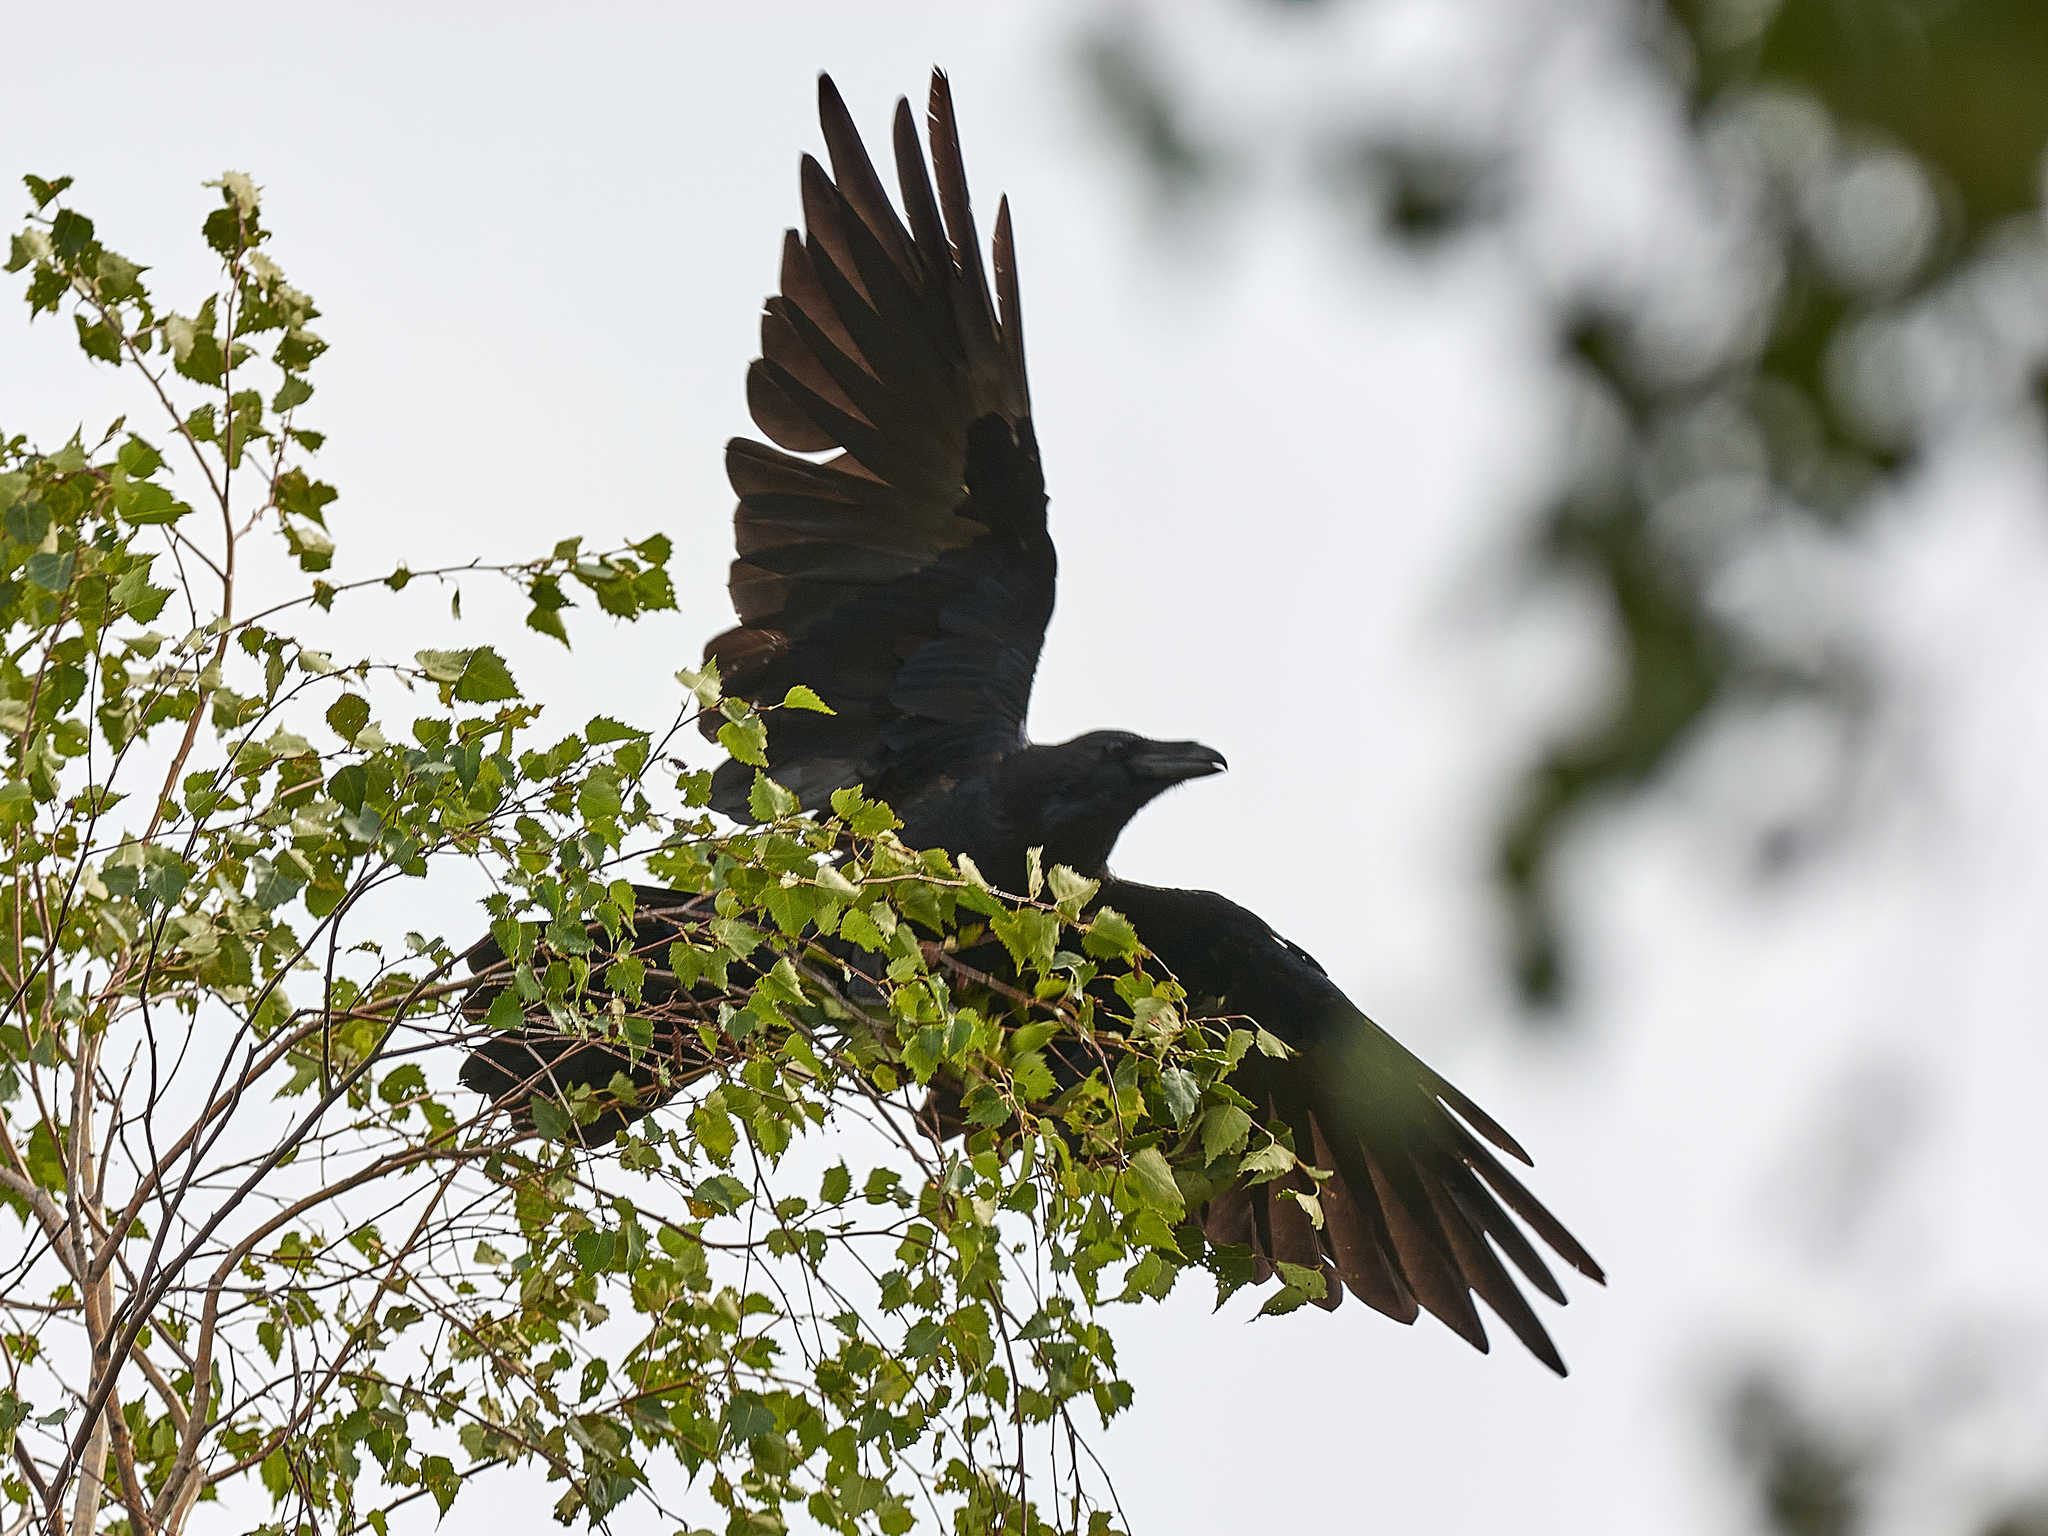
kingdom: Animalia
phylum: Chordata
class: Aves
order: Passeriformes
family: Corvidae
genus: Corvus
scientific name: Corvus corax
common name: Common raven
